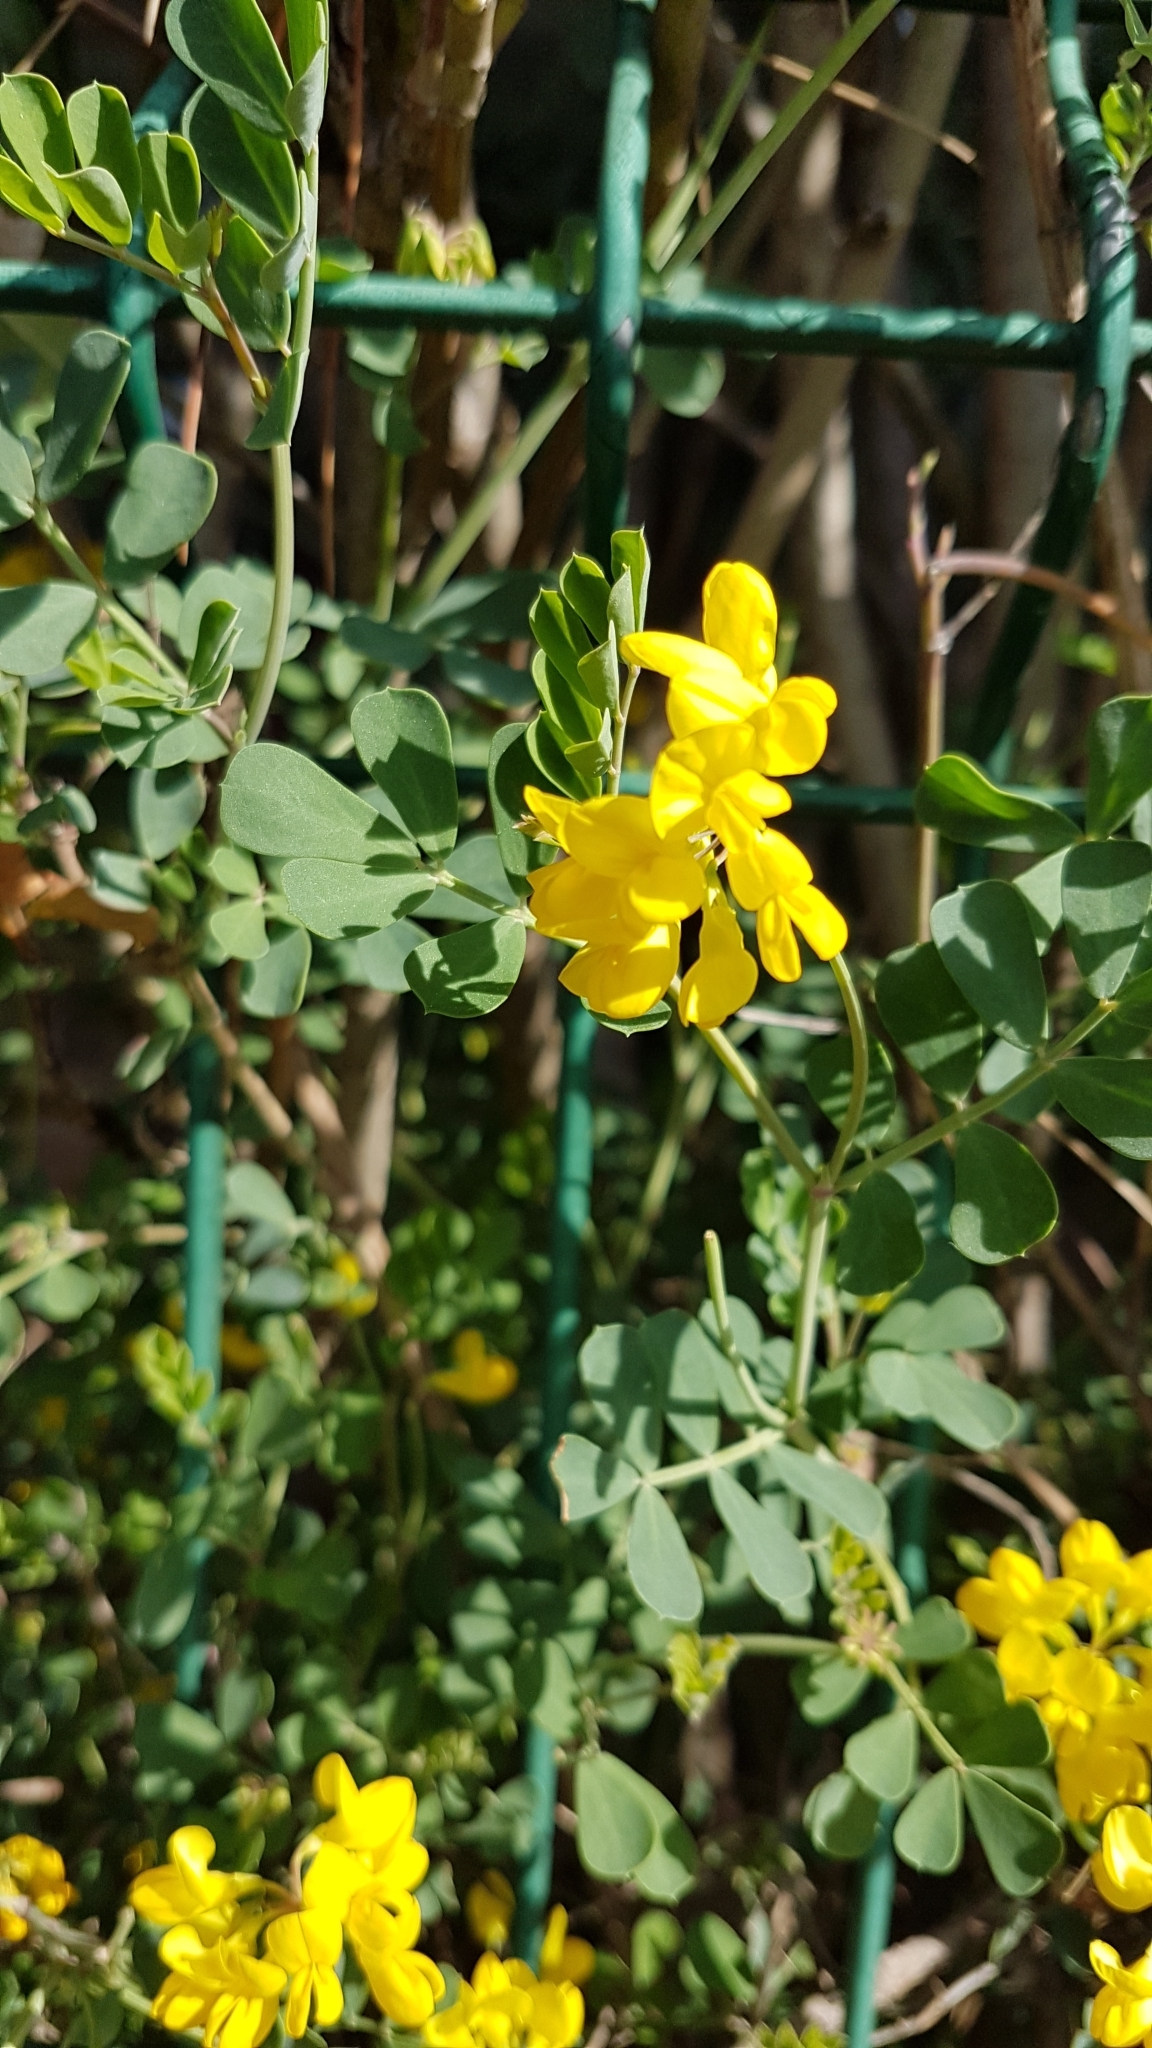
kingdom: Plantae
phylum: Tracheophyta
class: Magnoliopsida
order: Fabales
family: Fabaceae
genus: Coronilla
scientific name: Coronilla valentina
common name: Shrubby scorpion-vetch
